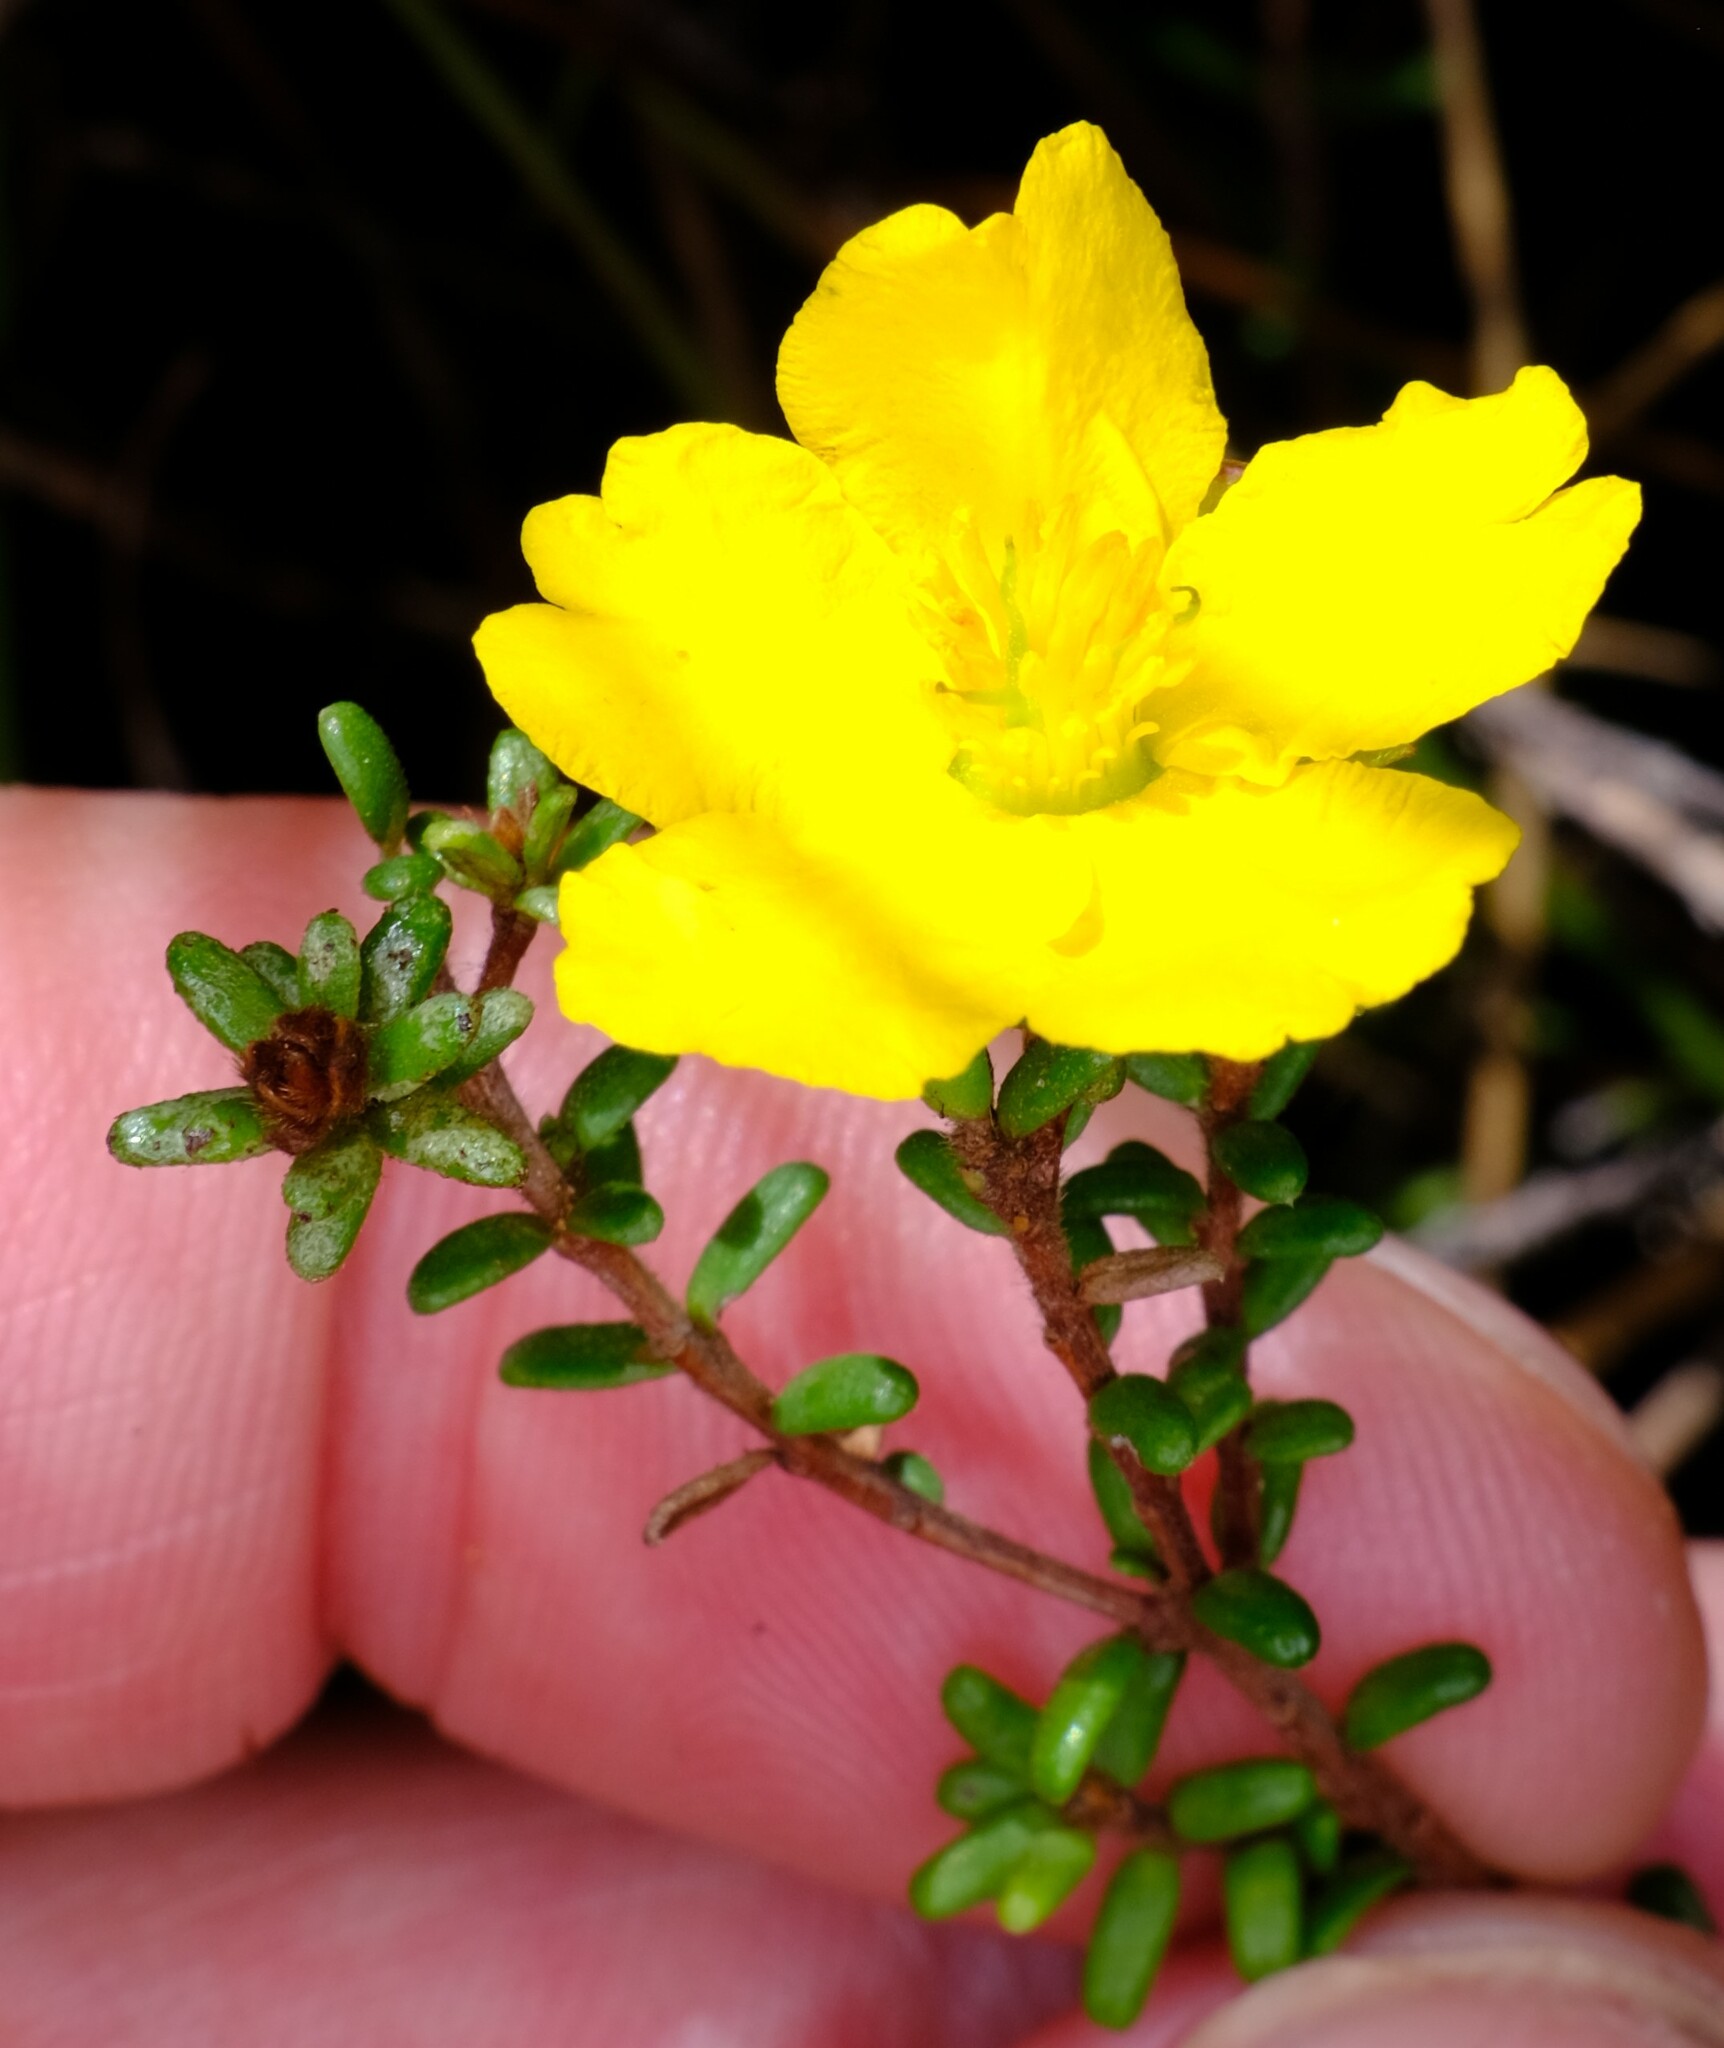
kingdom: Plantae
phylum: Tracheophyta
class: Magnoliopsida
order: Dilleniales
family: Dilleniaceae
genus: Hibbertia
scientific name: Hibbertia vestita
